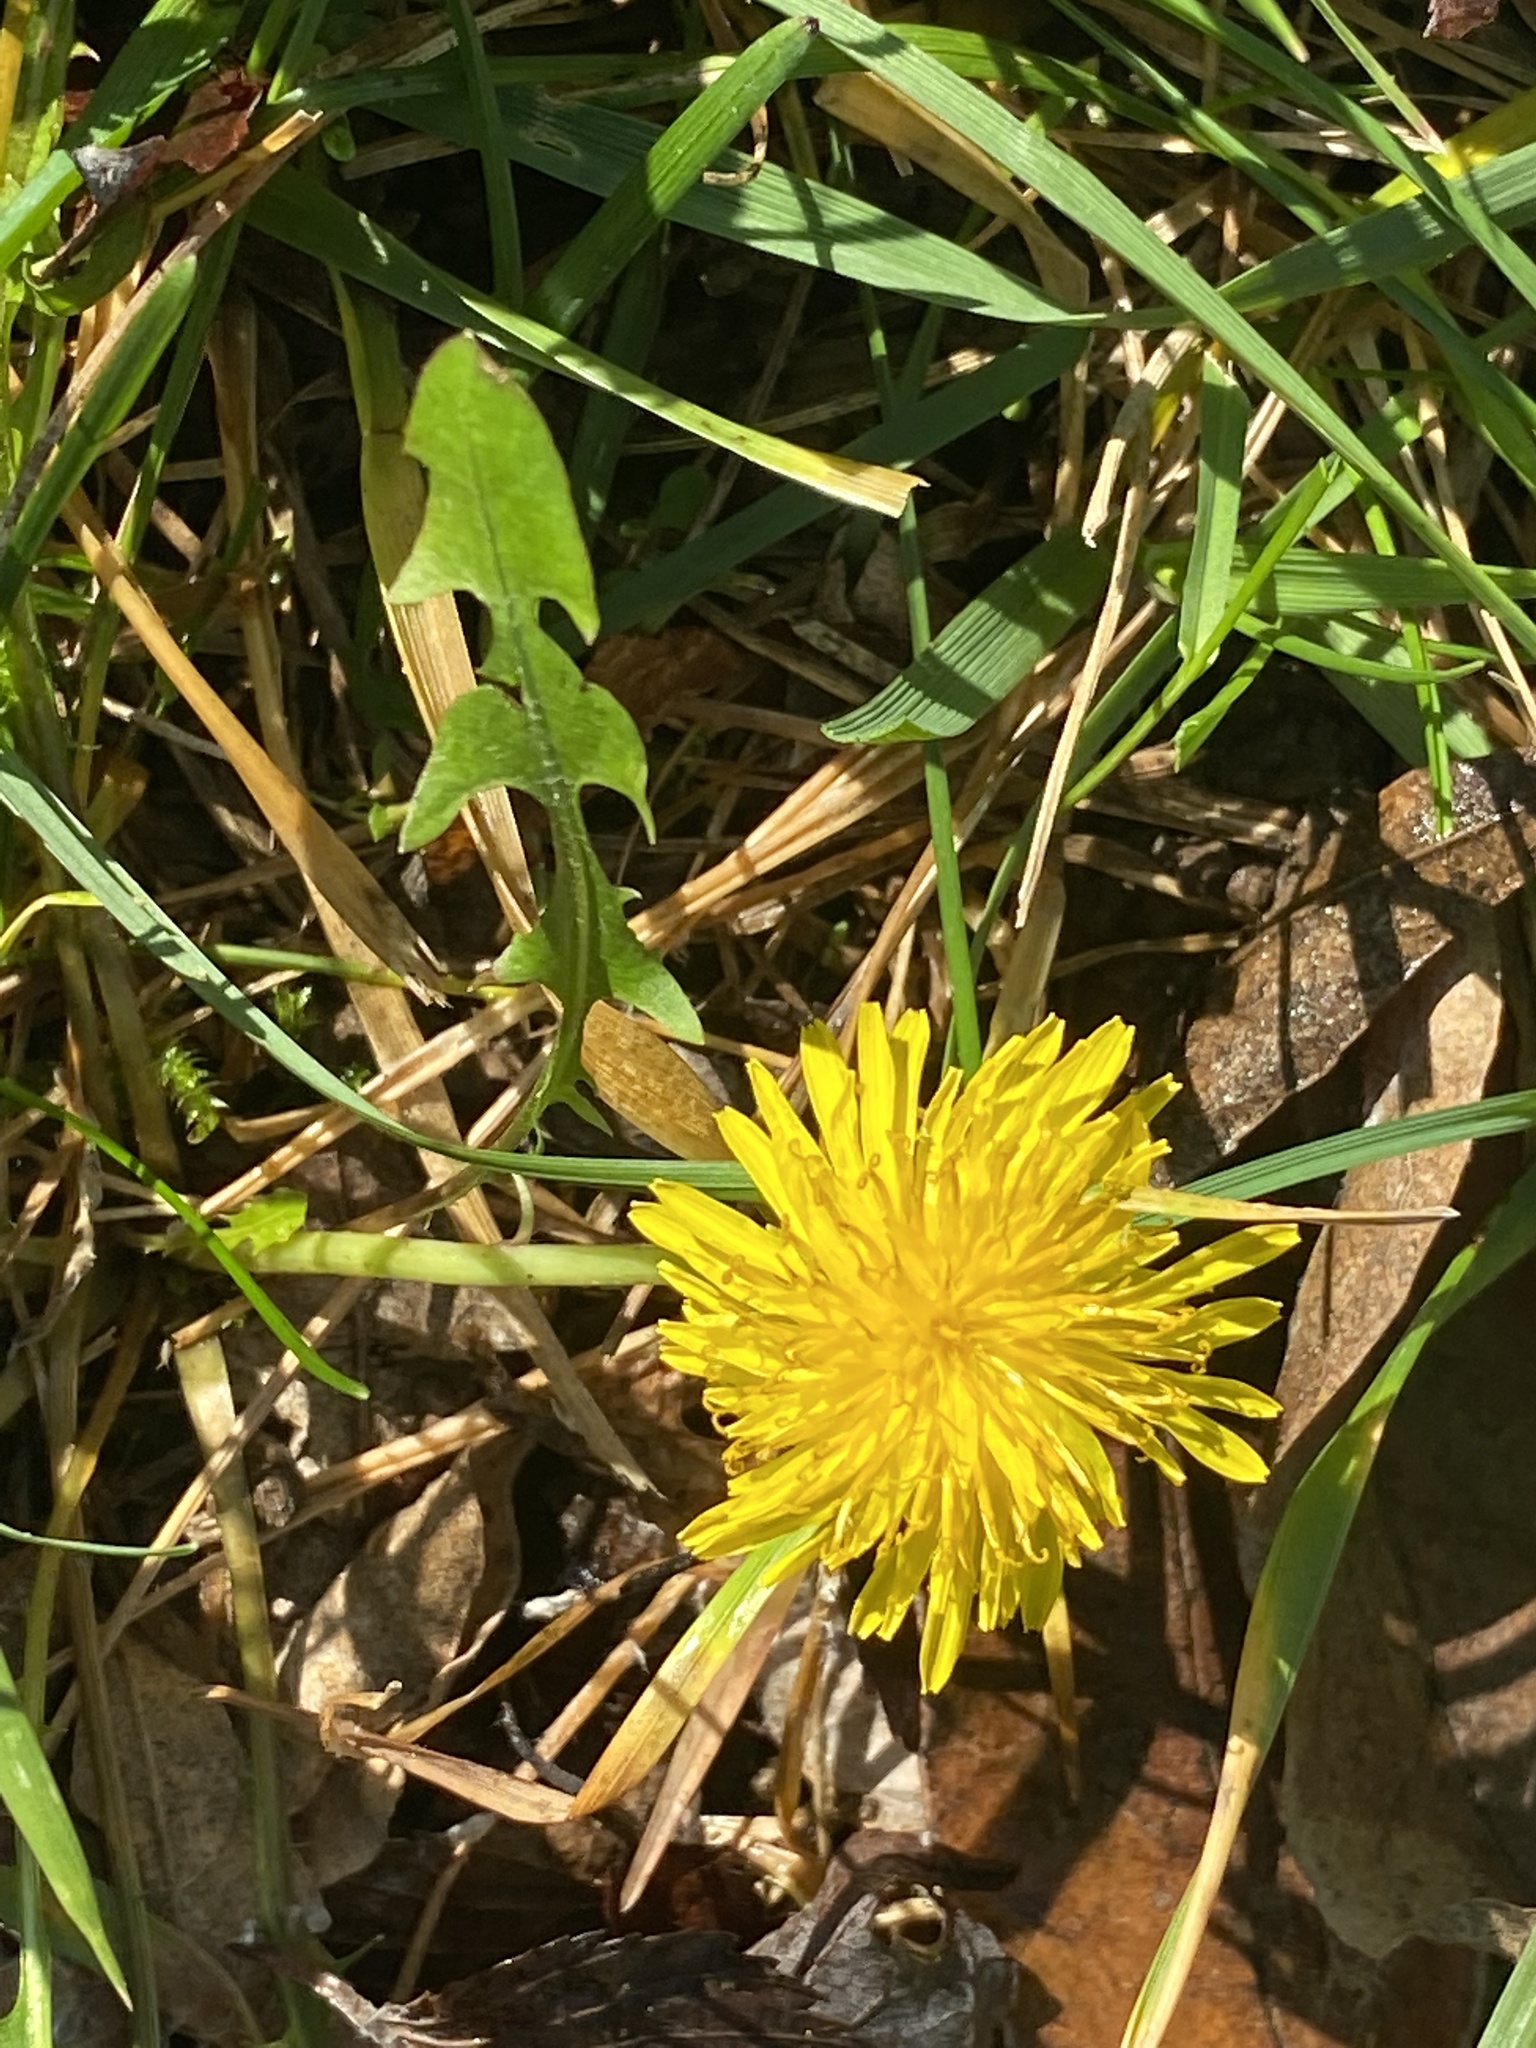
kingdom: Plantae
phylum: Tracheophyta
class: Magnoliopsida
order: Asterales
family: Asteraceae
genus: Taraxacum
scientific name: Taraxacum officinale
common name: Common dandelion
